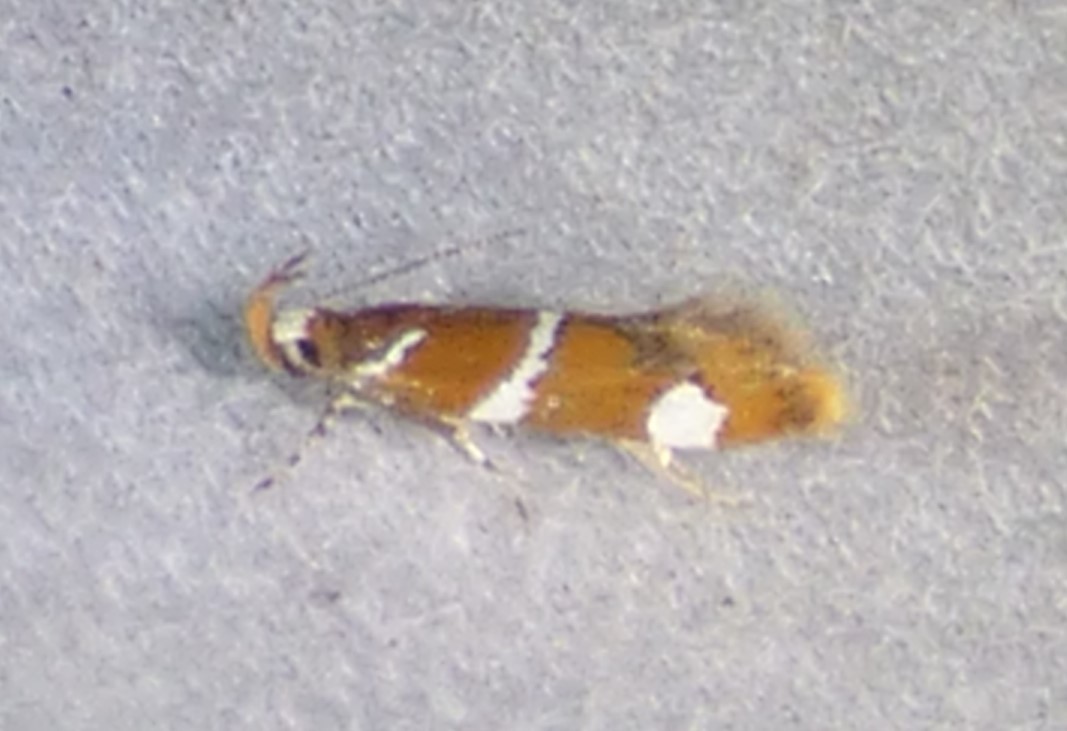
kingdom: Animalia
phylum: Arthropoda
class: Insecta
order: Lepidoptera
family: Oecophoridae
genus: Promalactis
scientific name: Promalactis suzukiella
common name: Moth
